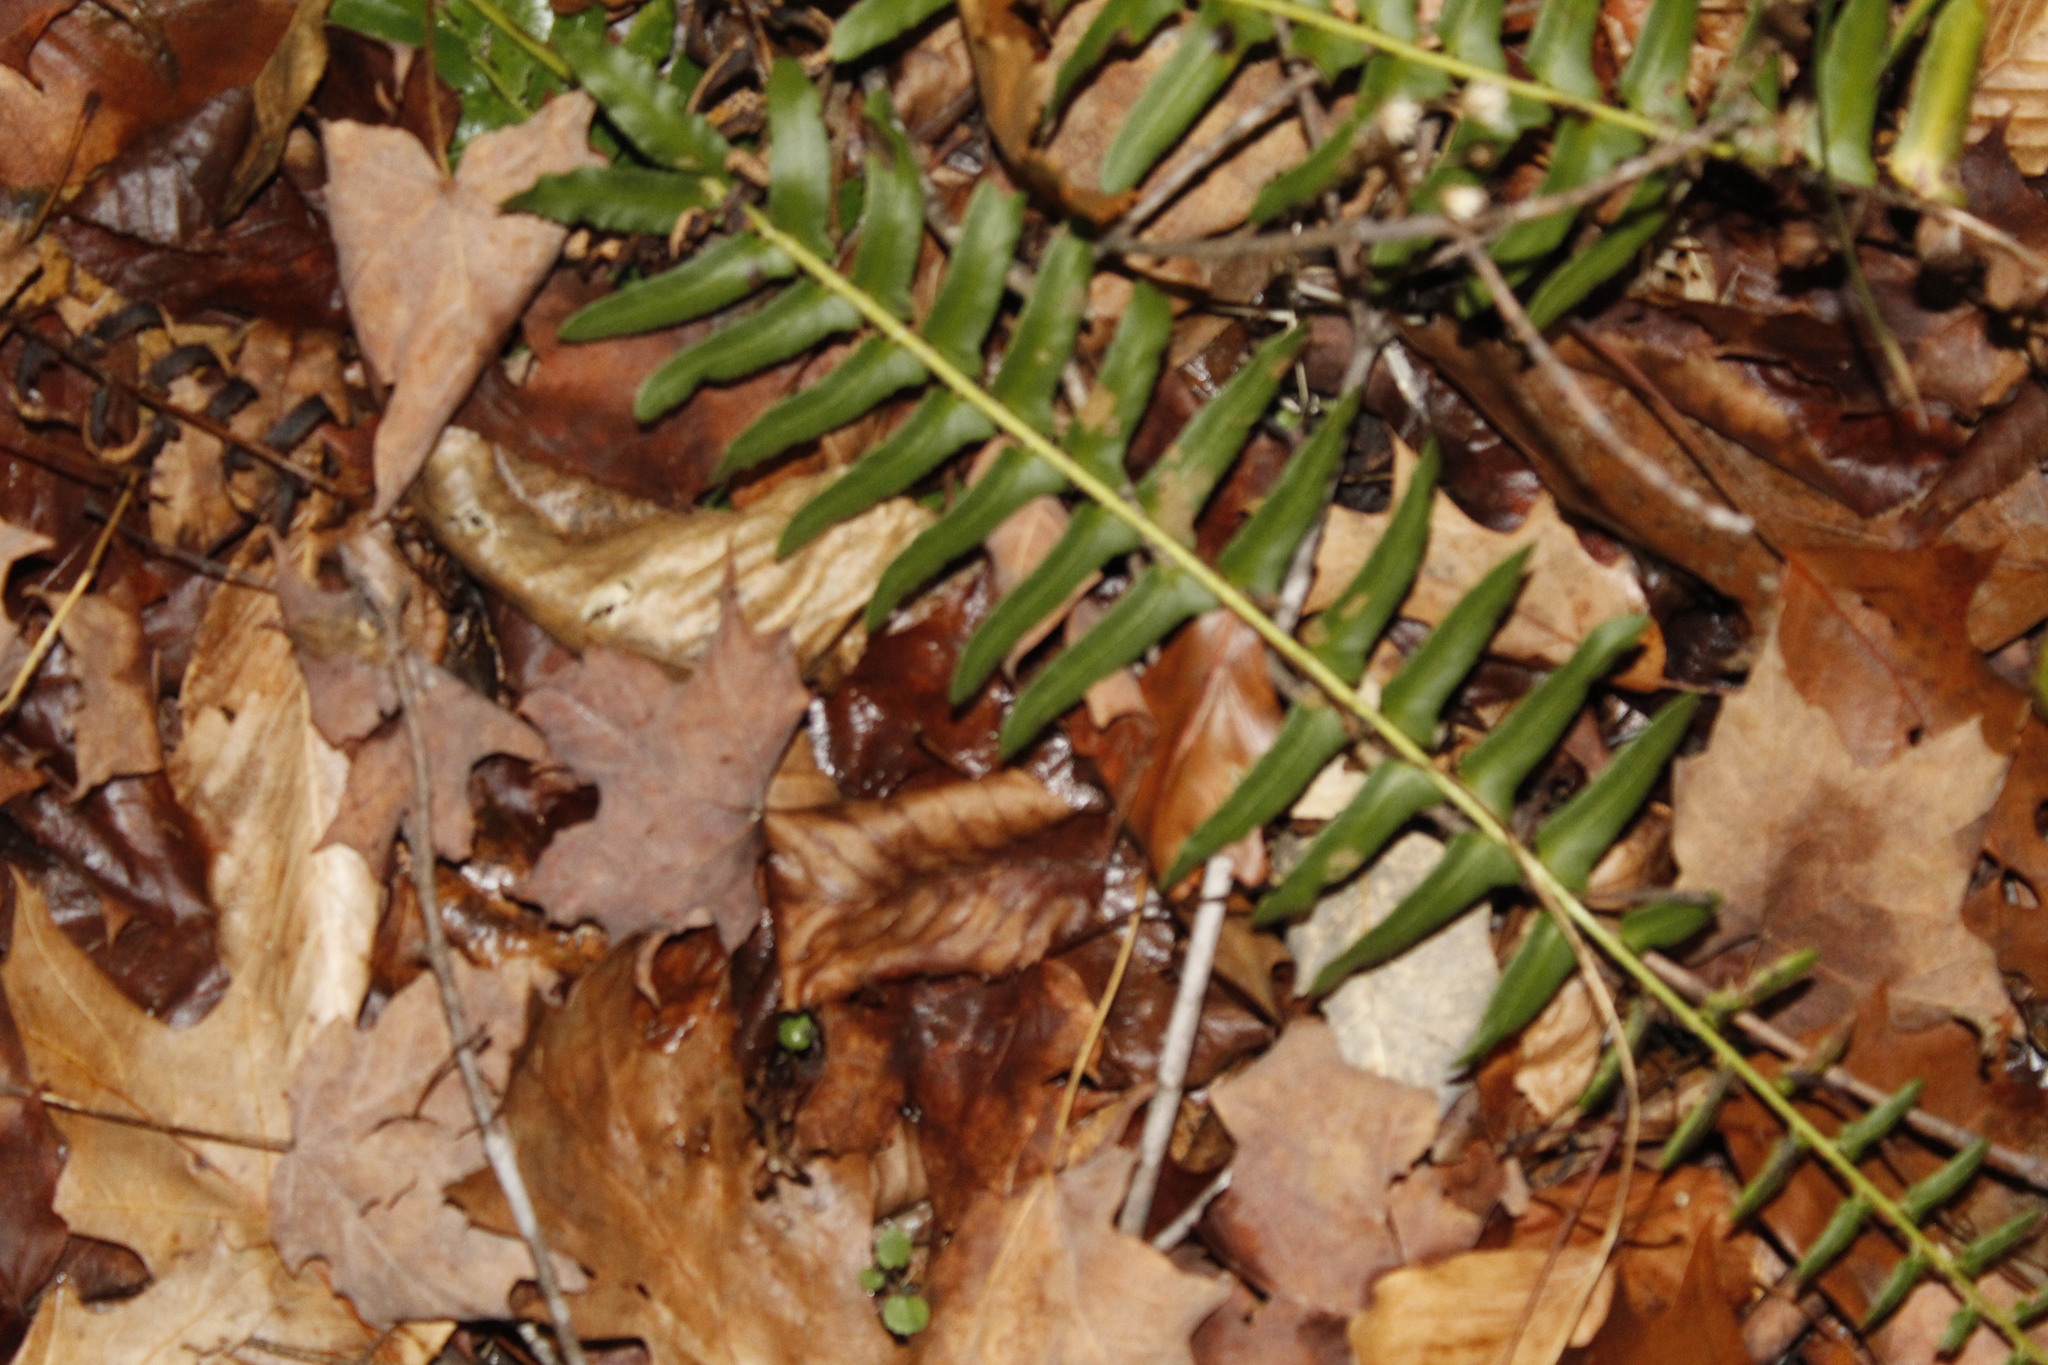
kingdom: Plantae
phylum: Tracheophyta
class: Polypodiopsida
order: Polypodiales
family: Dryopteridaceae
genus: Polystichum
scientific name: Polystichum acrostichoides
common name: Christmas fern
